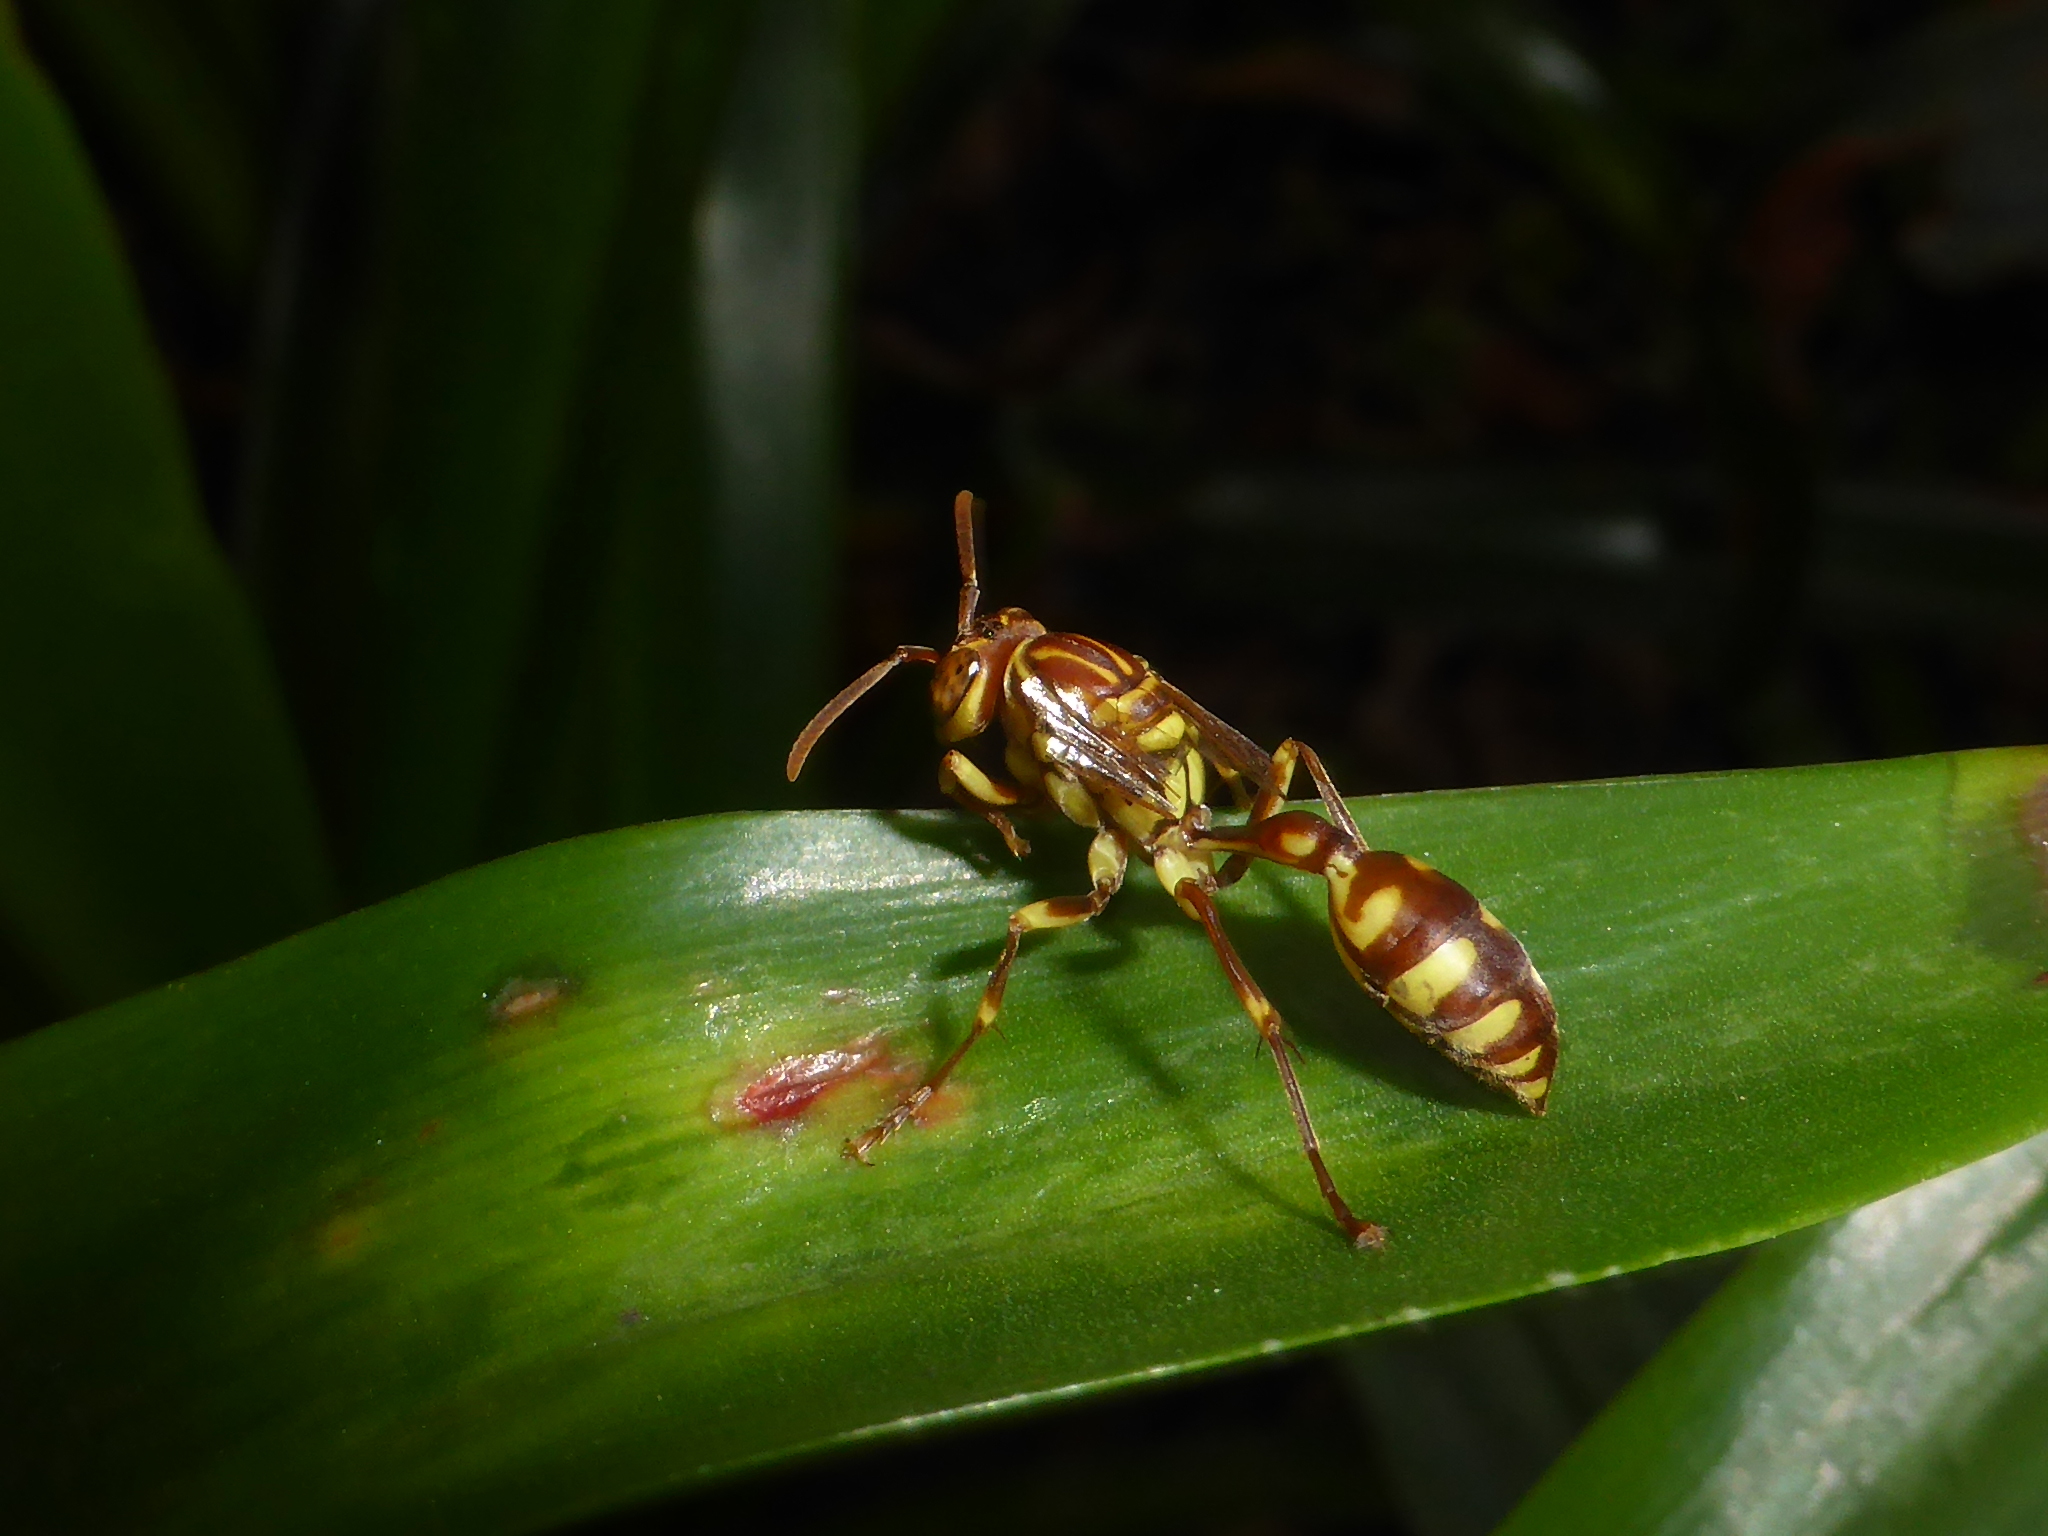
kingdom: Animalia
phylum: Arthropoda
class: Insecta
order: Hymenoptera
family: Vespidae
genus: Parapolybia
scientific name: Parapolybia varia
